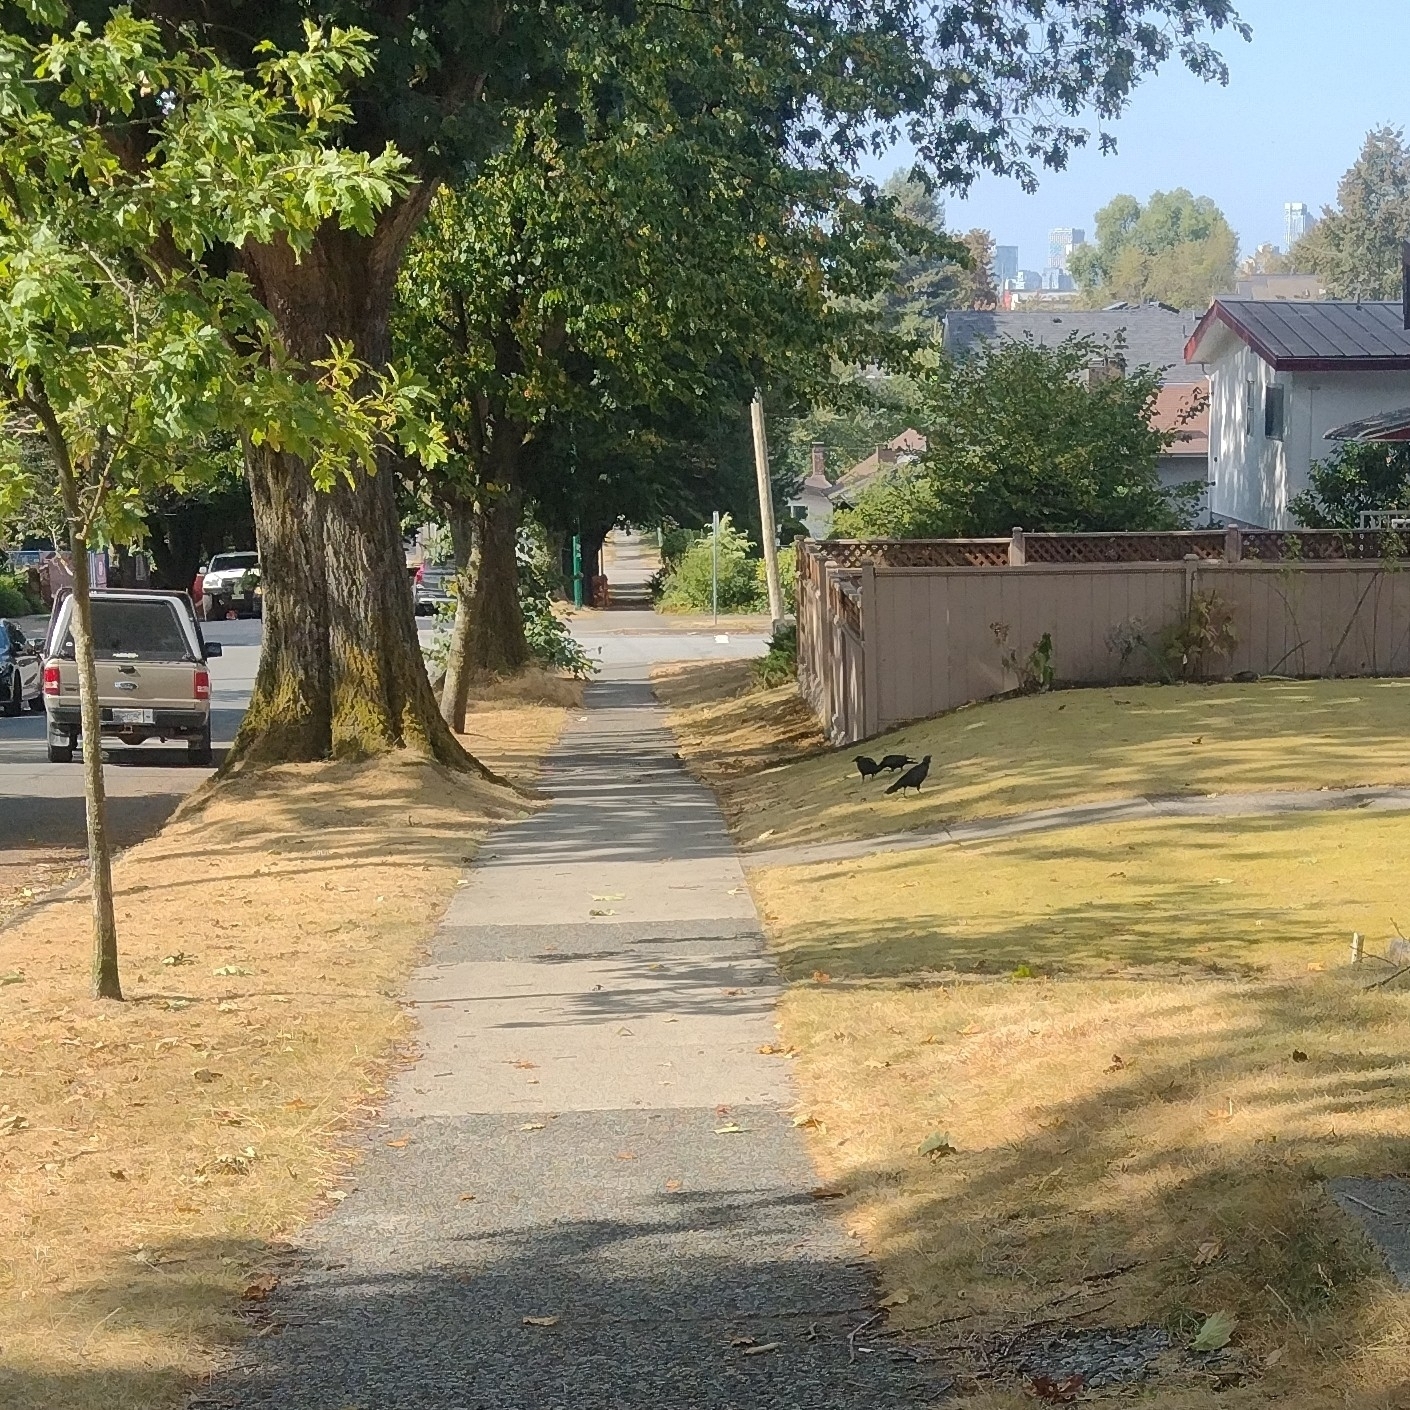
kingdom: Animalia
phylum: Chordata
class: Aves
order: Passeriformes
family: Corvidae
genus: Corvus
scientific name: Corvus brachyrhynchos
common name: American crow
